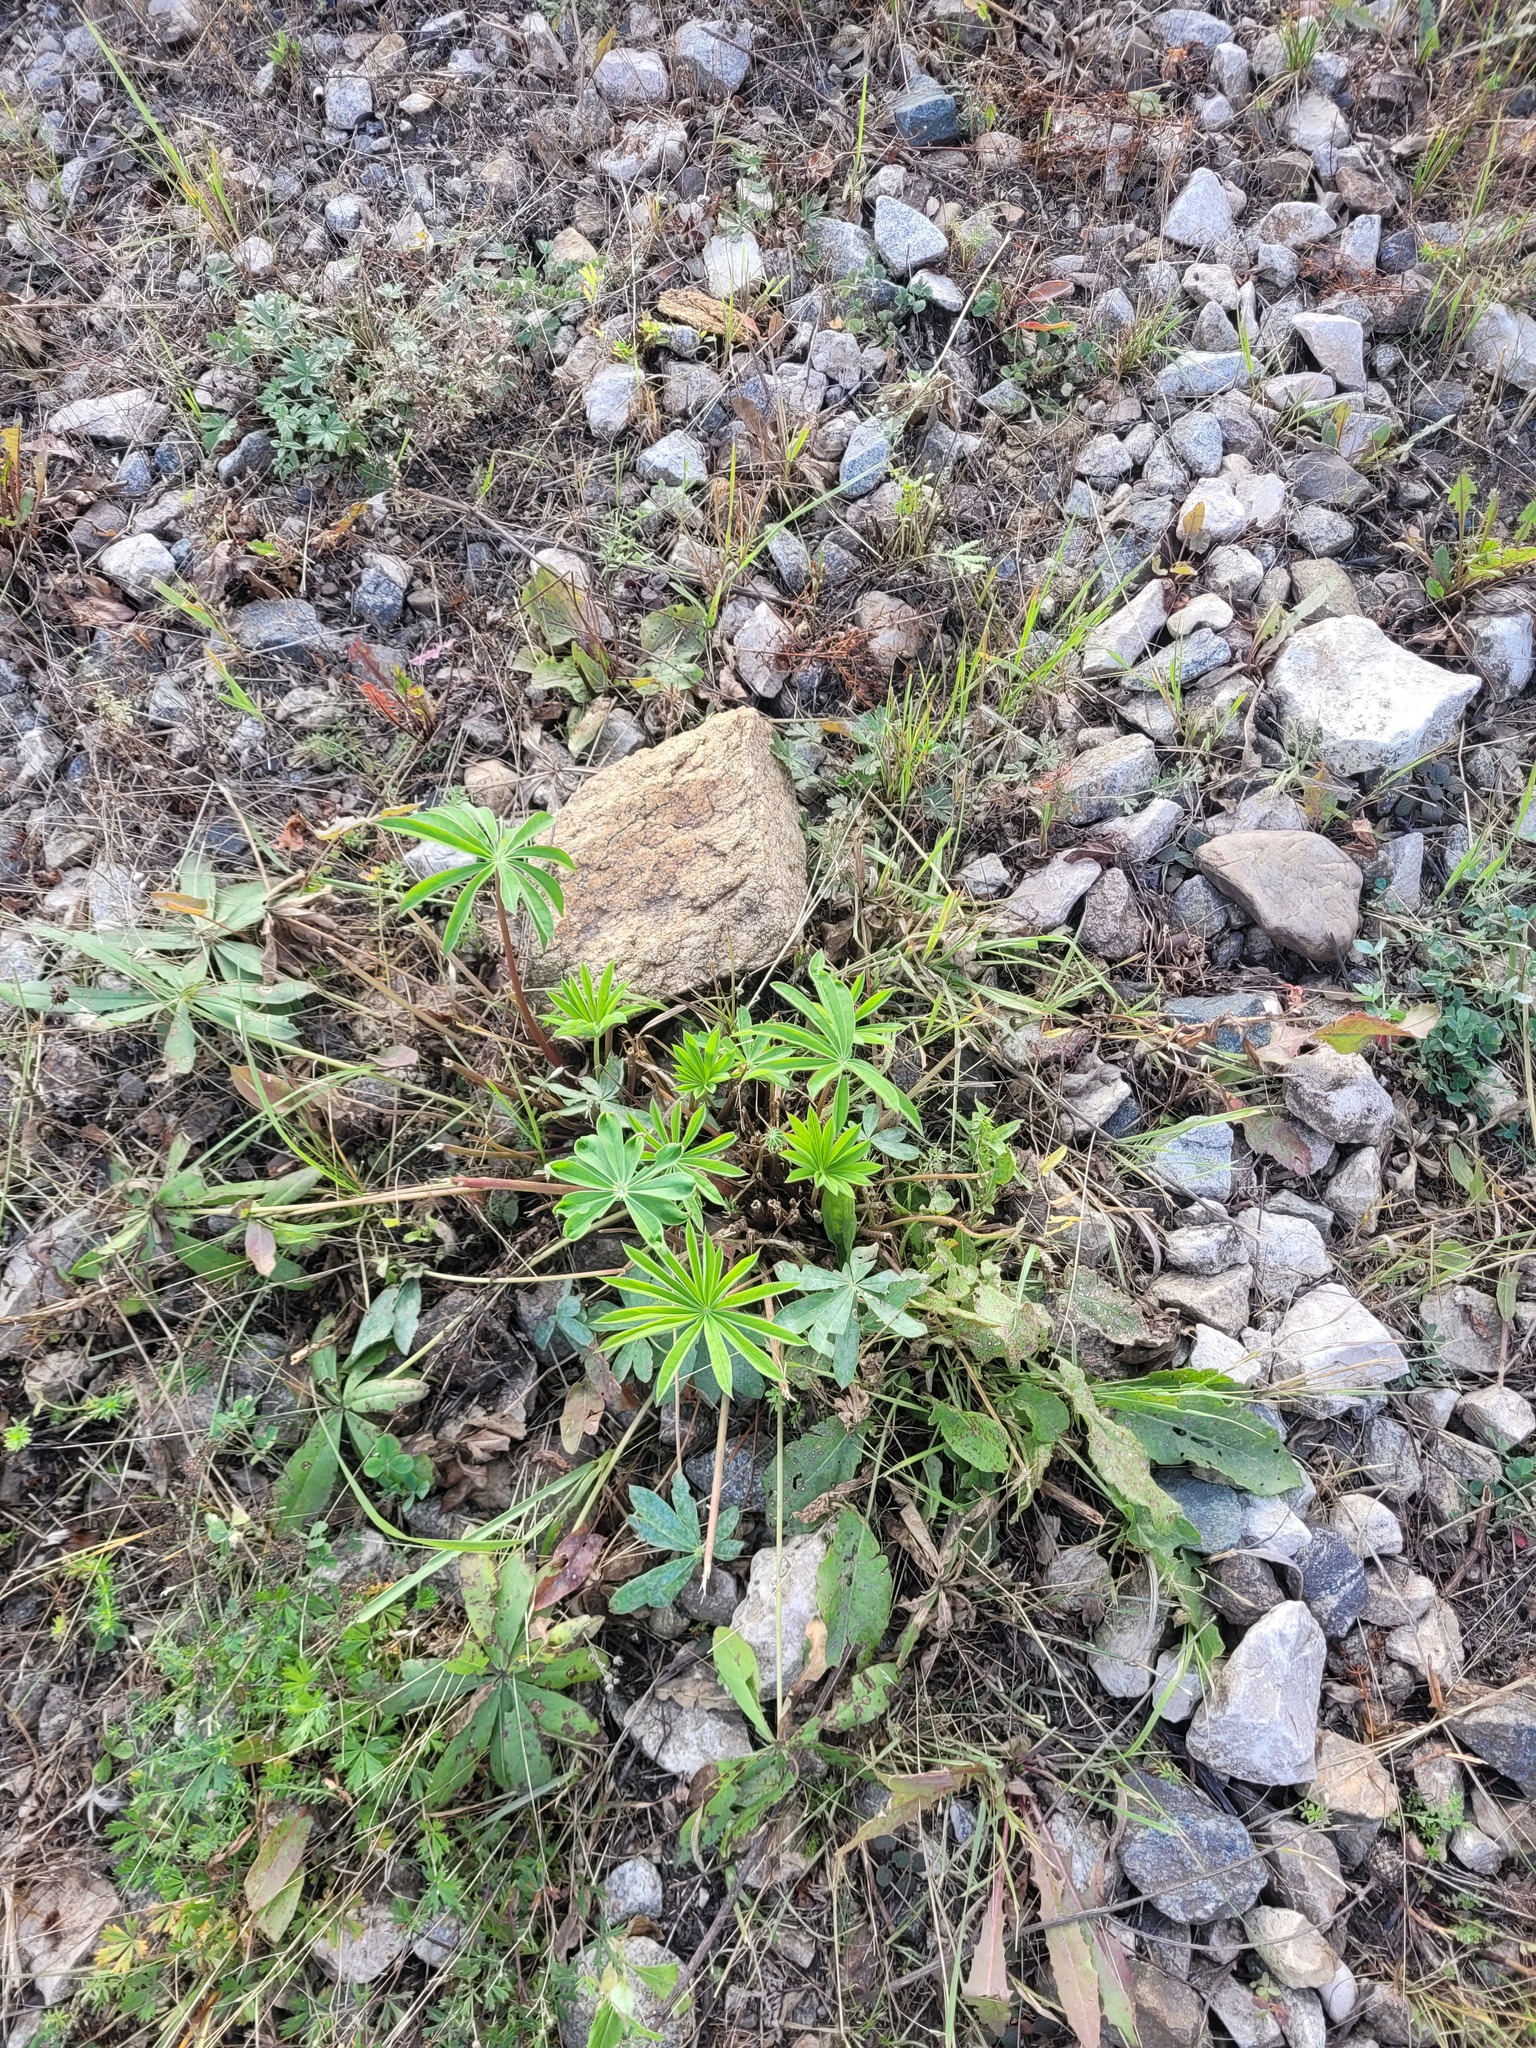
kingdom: Plantae
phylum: Tracheophyta
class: Magnoliopsida
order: Fabales
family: Fabaceae
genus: Lupinus
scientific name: Lupinus polyphyllus
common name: Garden lupin
